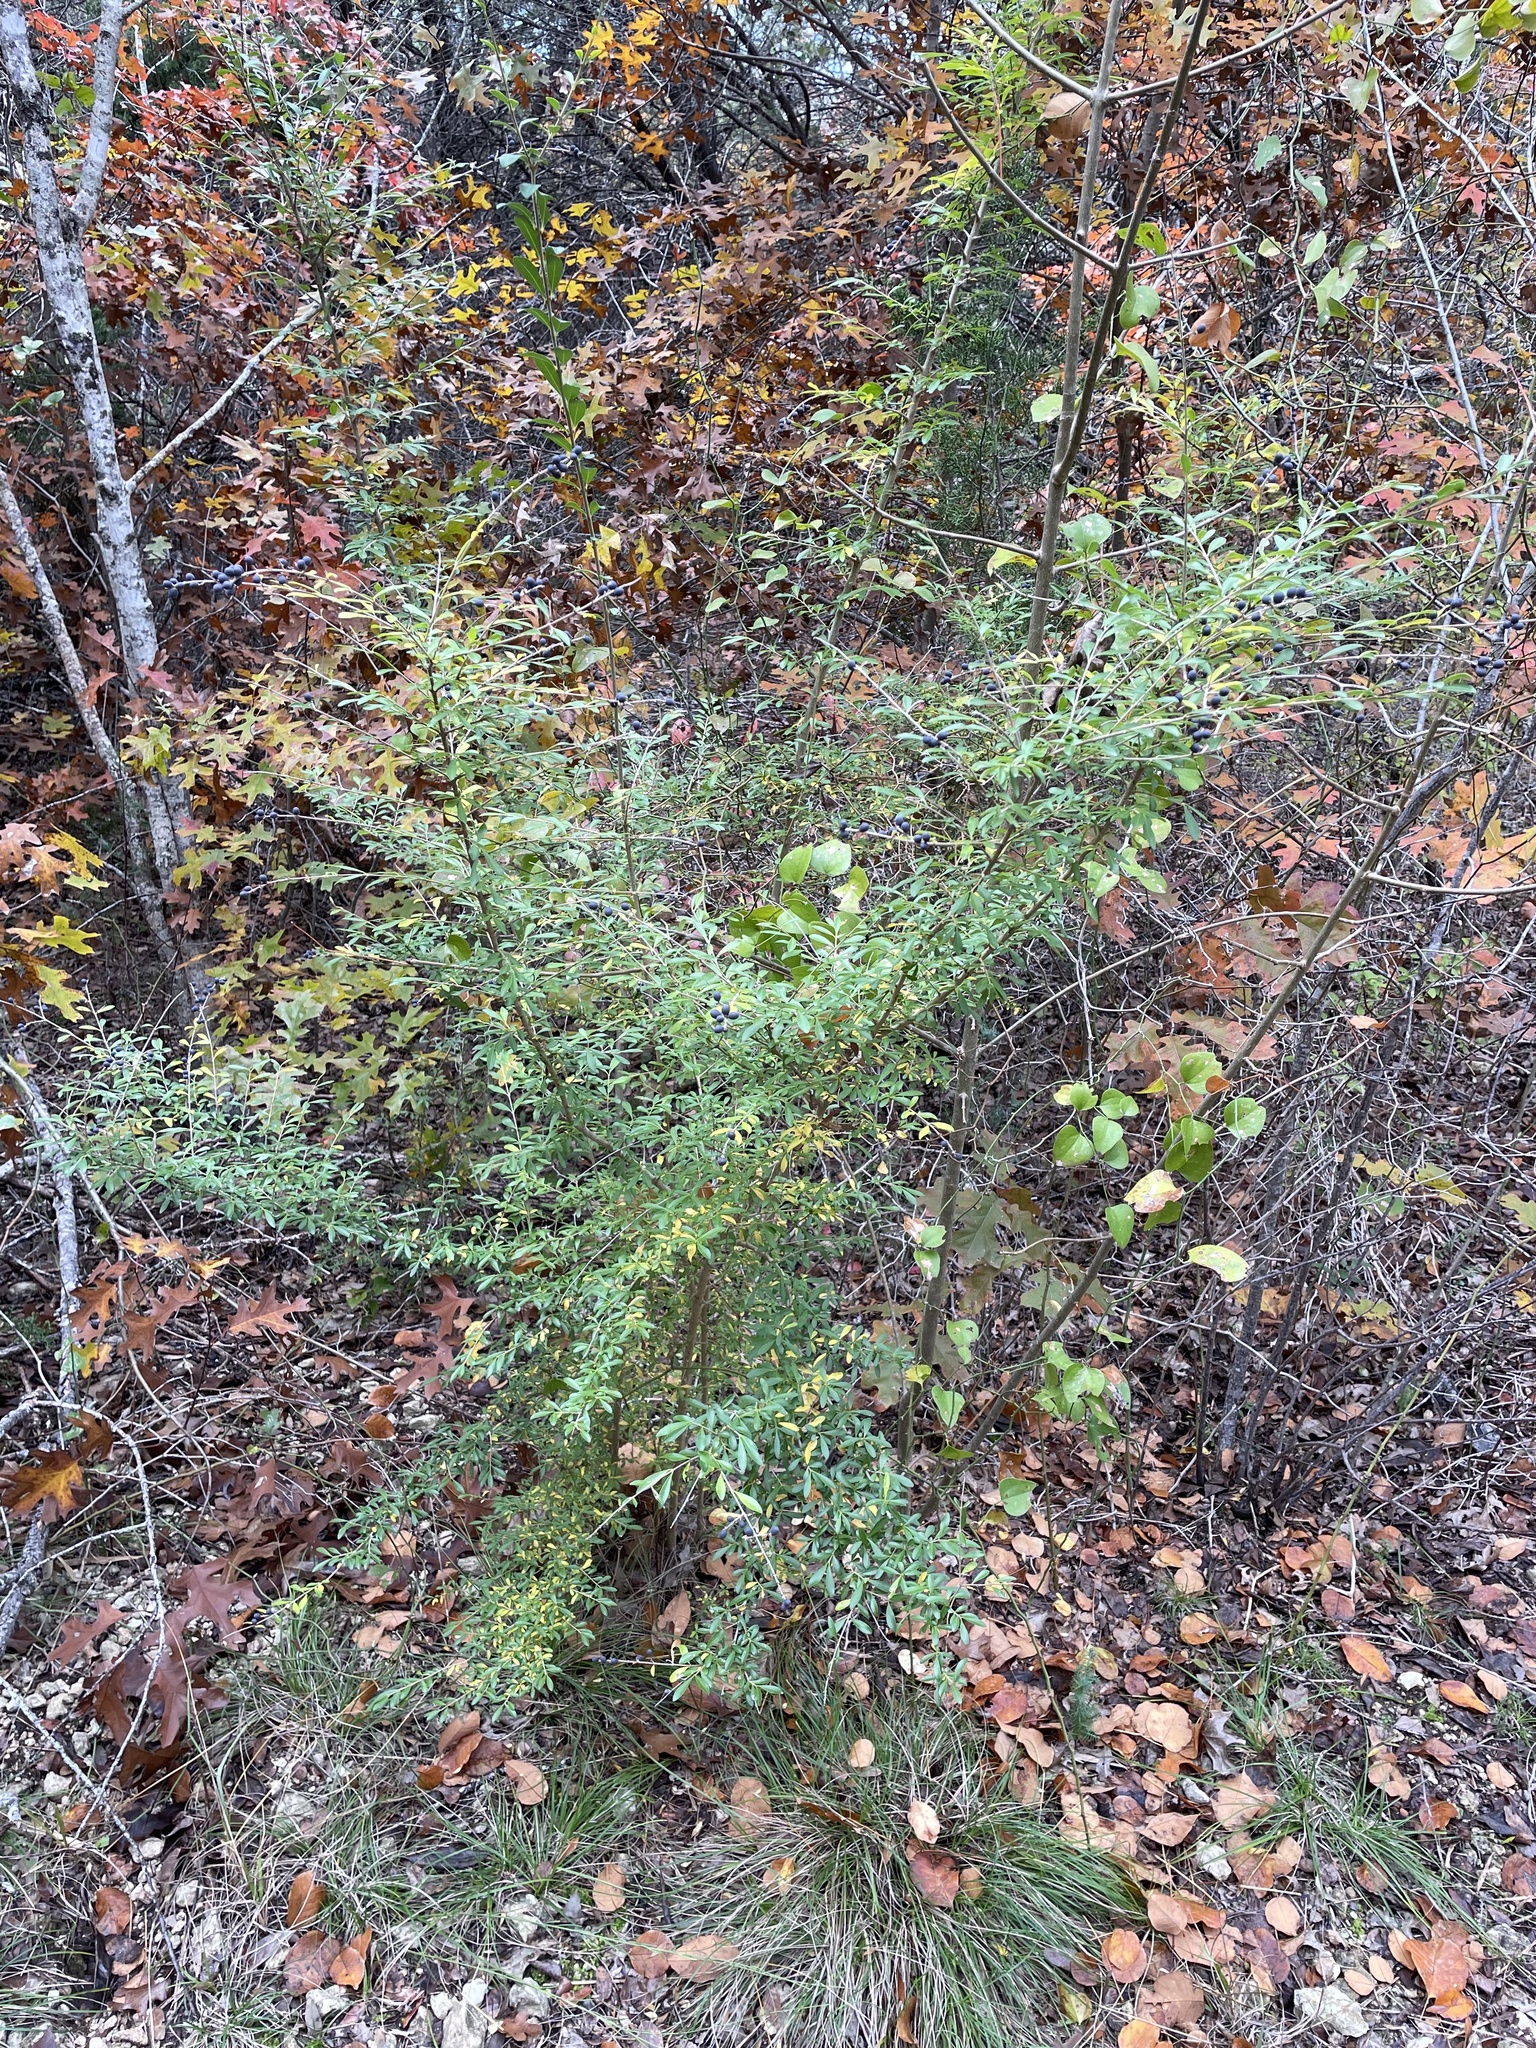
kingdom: Plantae
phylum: Tracheophyta
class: Magnoliopsida
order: Lamiales
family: Oleaceae
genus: Ligustrum
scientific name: Ligustrum quihoui
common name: Waxyleaf privet
